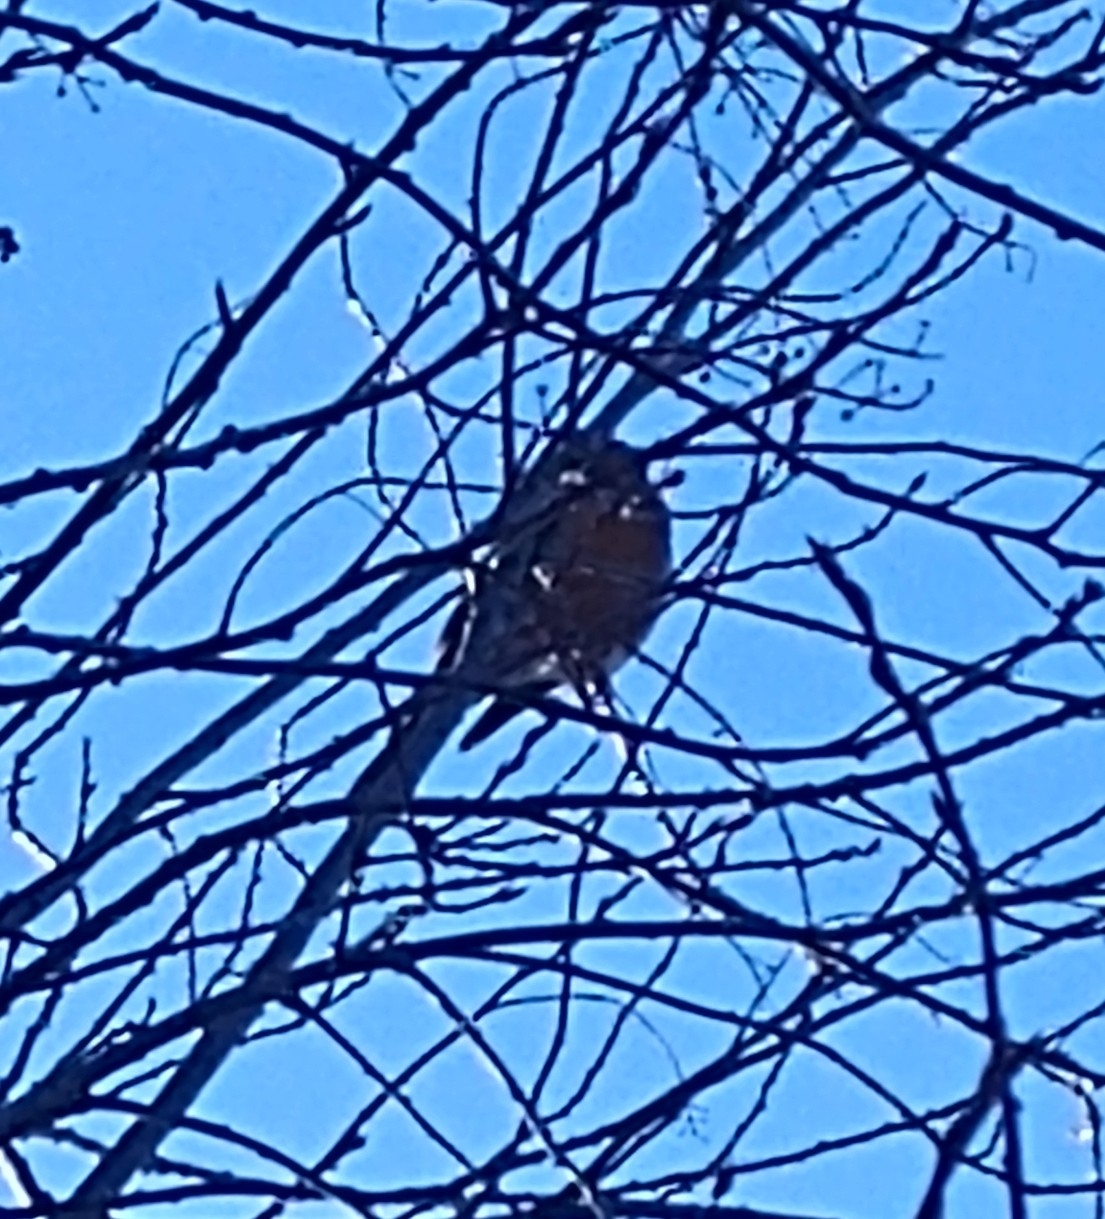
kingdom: Animalia
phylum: Chordata
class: Aves
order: Passeriformes
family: Turdidae
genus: Turdus
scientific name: Turdus migratorius
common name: American robin
